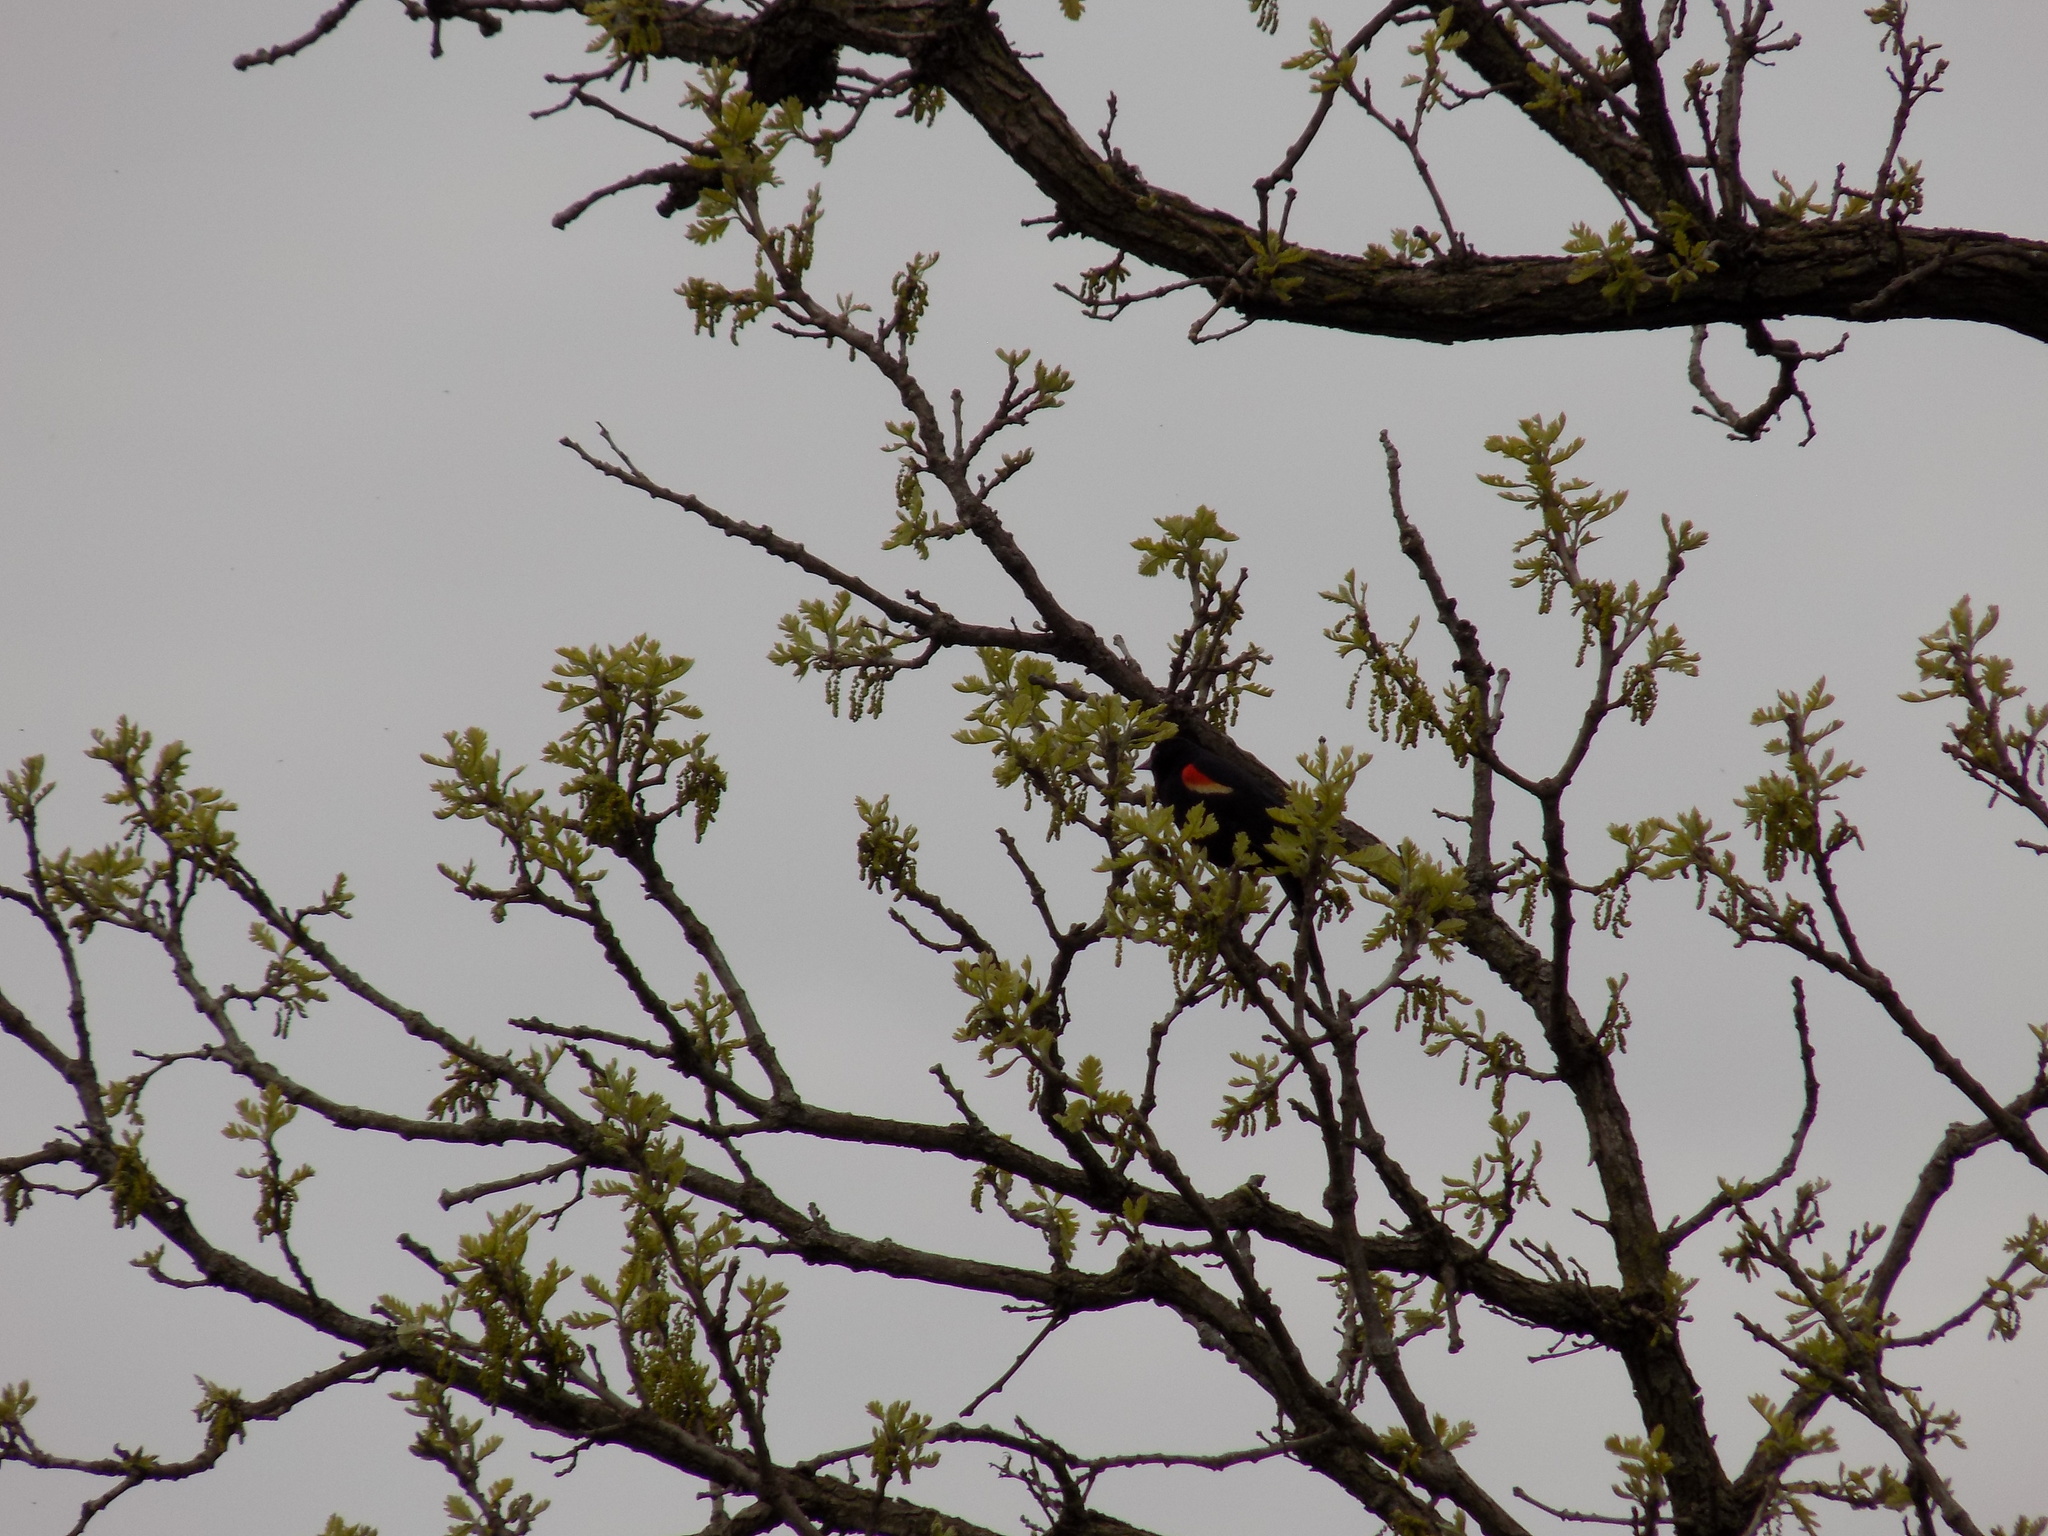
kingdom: Animalia
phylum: Chordata
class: Aves
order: Passeriformes
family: Icteridae
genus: Agelaius
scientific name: Agelaius phoeniceus
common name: Red-winged blackbird
